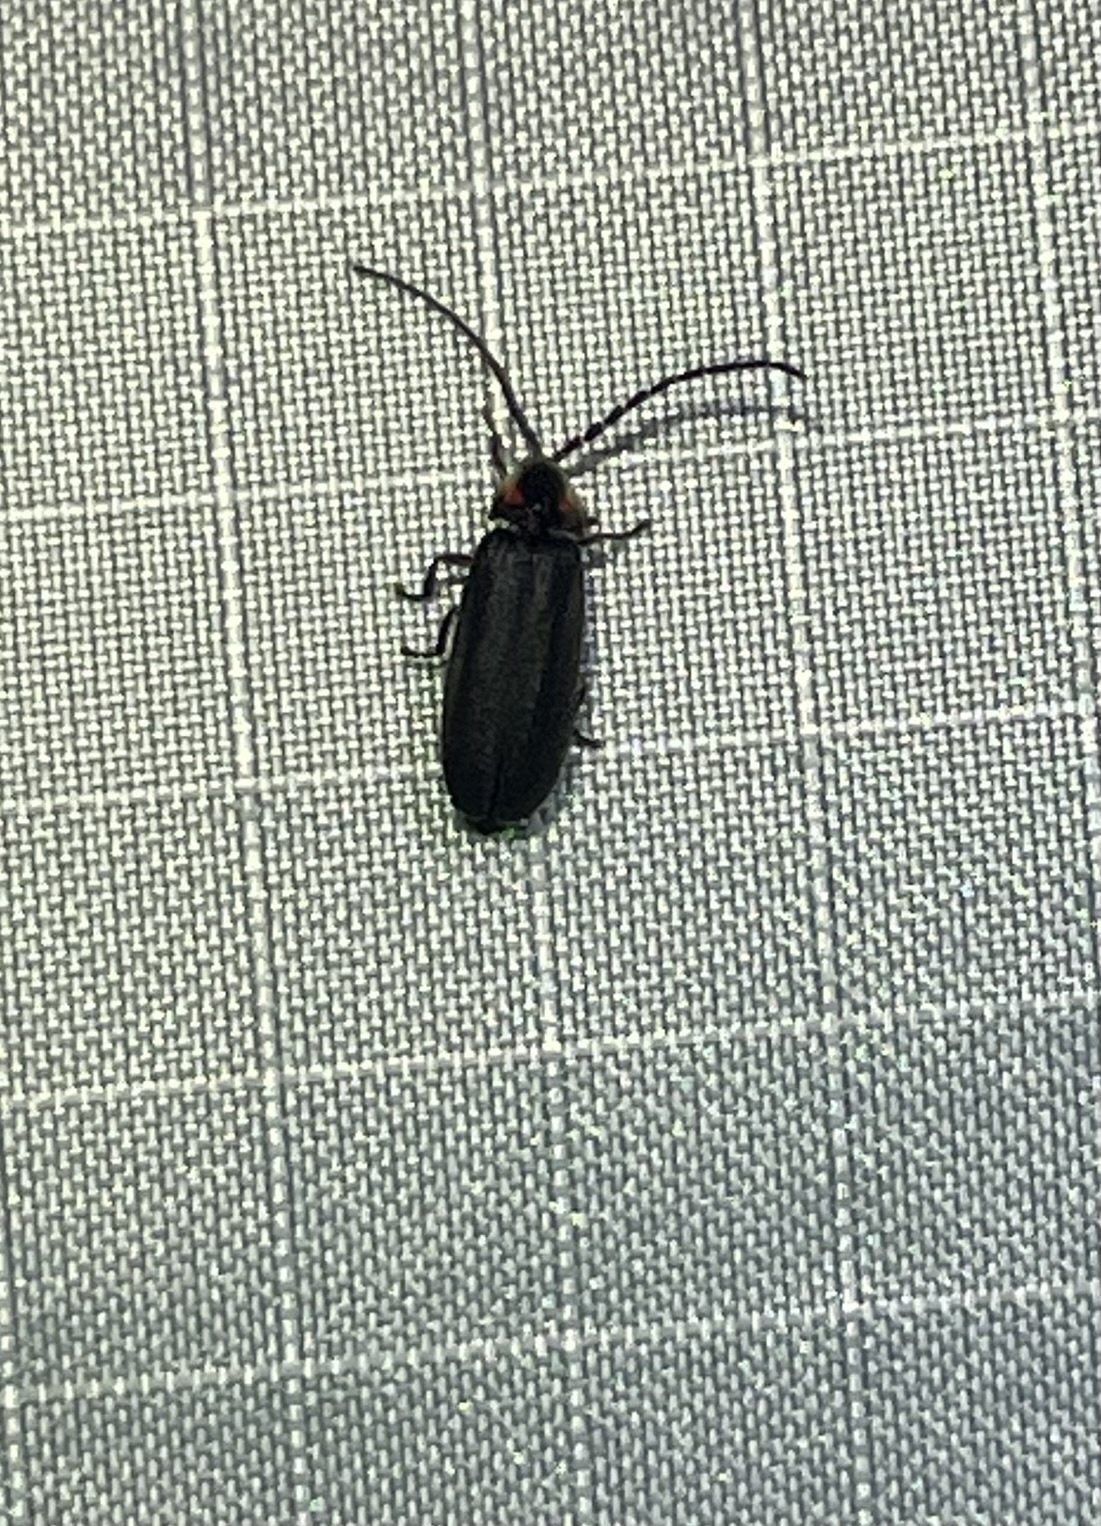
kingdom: Animalia
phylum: Arthropoda
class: Insecta
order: Coleoptera
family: Lampyridae
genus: Lucidota
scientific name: Lucidota punctata
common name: Dotted firefly
